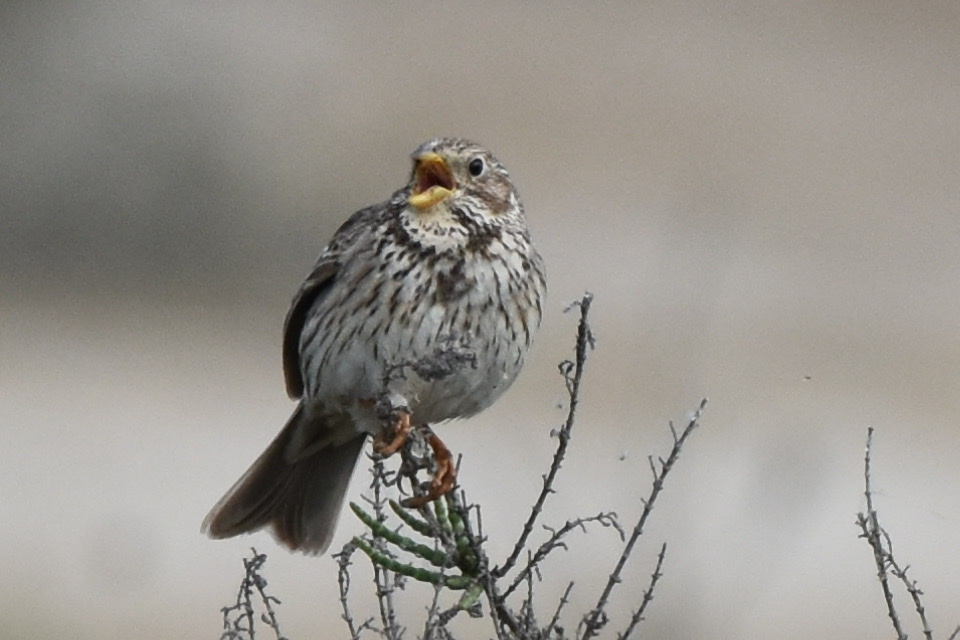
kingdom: Animalia
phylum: Chordata
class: Aves
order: Passeriformes
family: Emberizidae
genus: Emberiza
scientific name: Emberiza calandra
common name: Corn bunting
